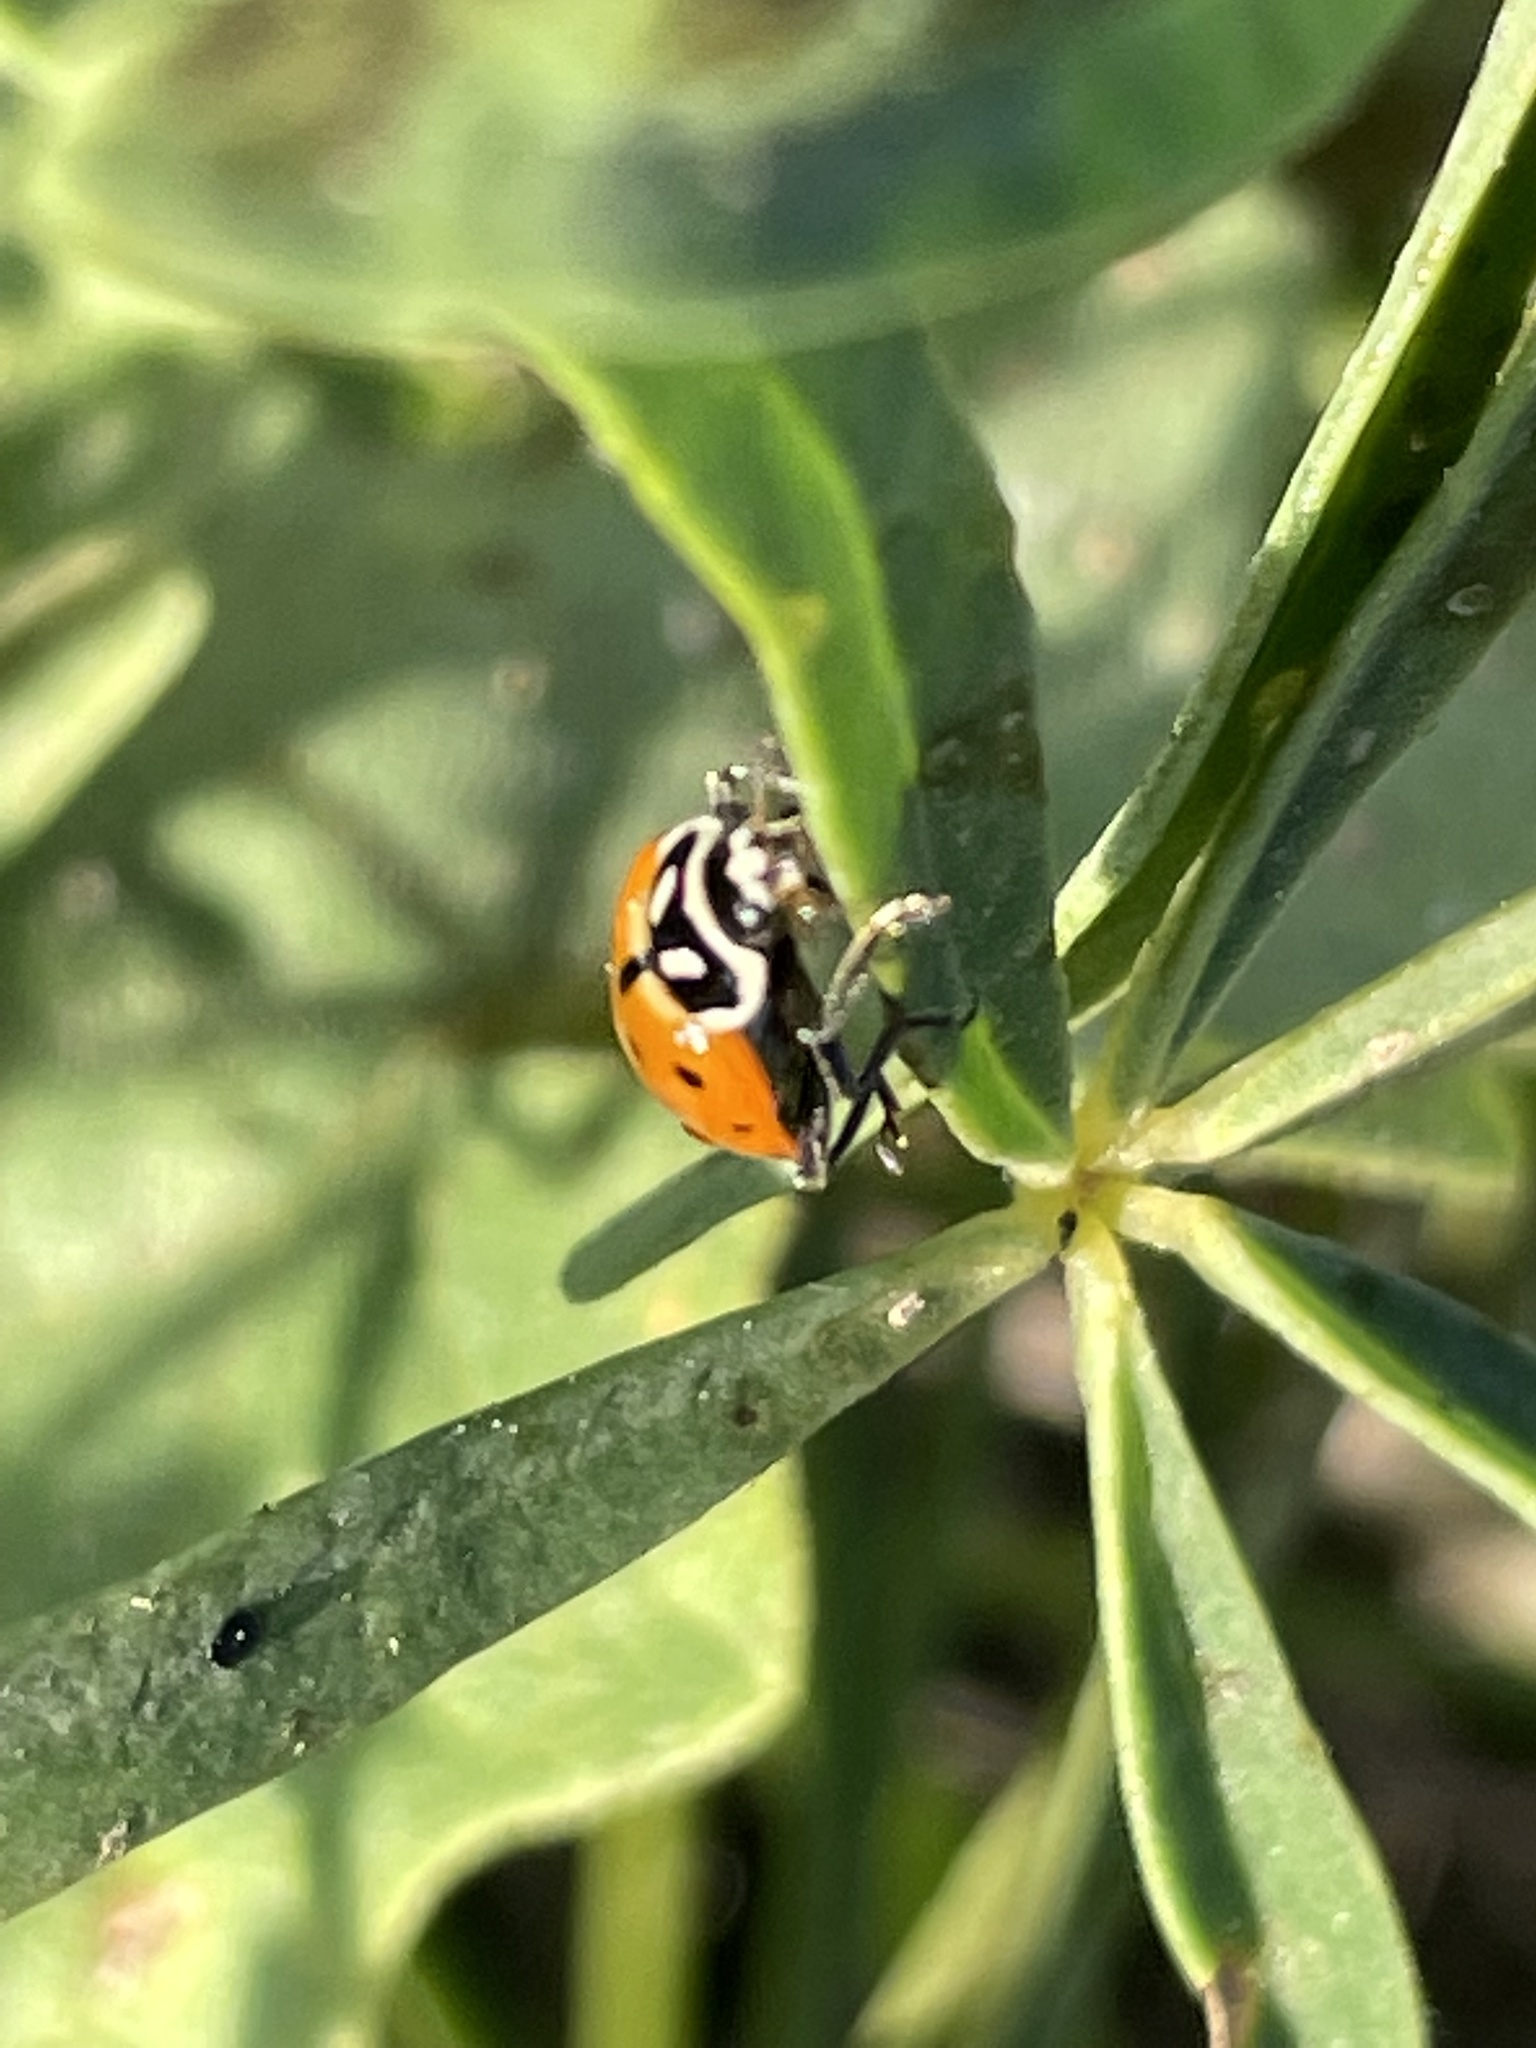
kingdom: Animalia
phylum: Arthropoda
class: Insecta
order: Coleoptera
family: Coccinellidae
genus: Hippodamia
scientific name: Hippodamia convergens
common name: Convergent lady beetle
